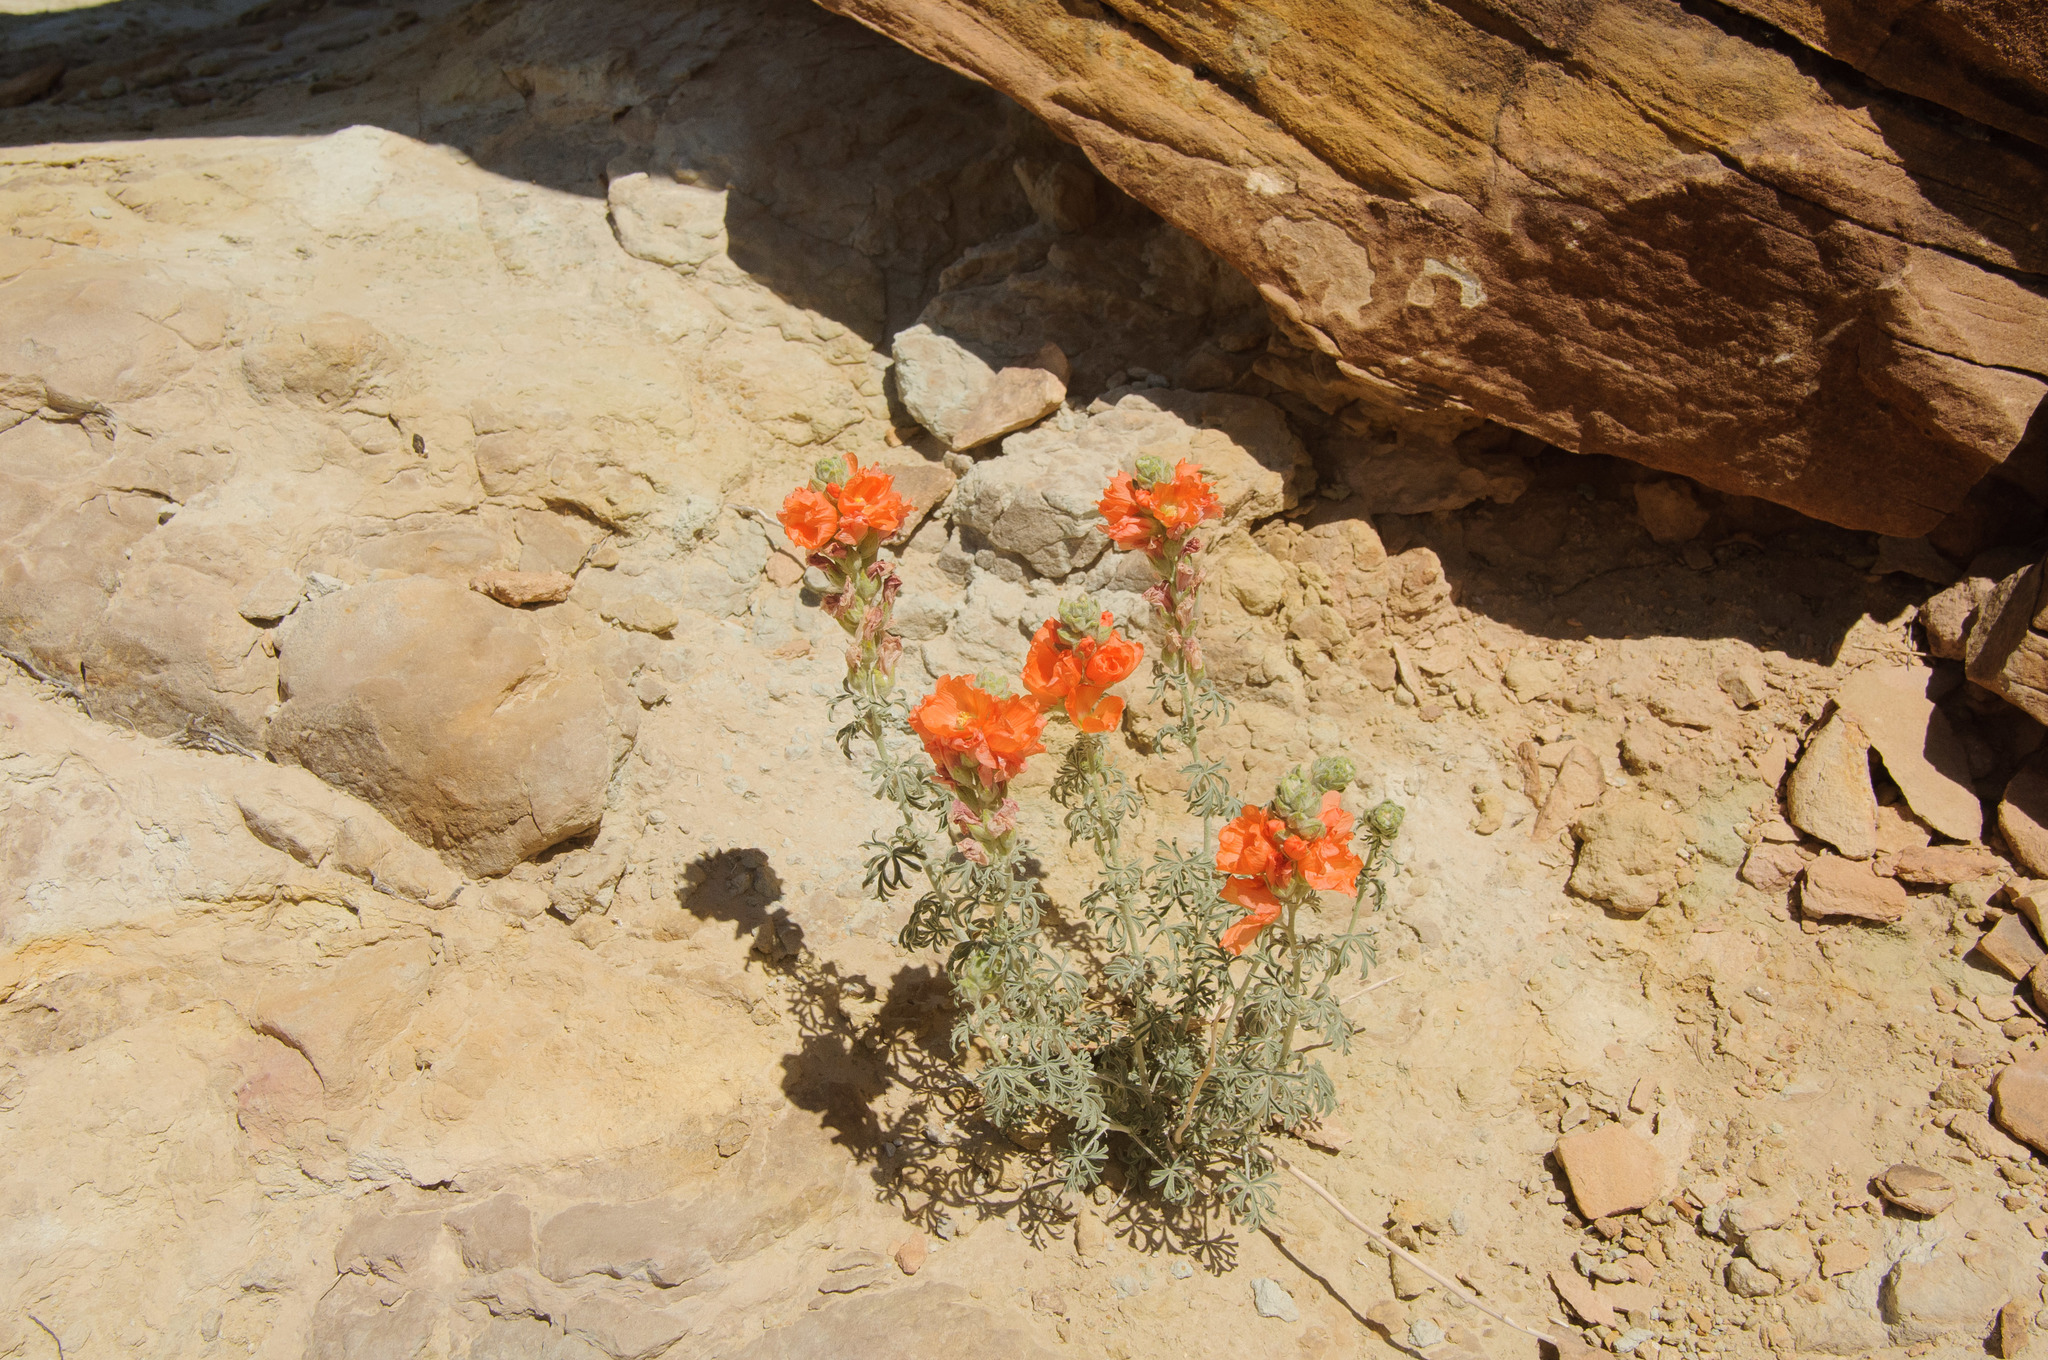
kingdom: Plantae
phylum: Tracheophyta
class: Magnoliopsida
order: Malvales
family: Malvaceae
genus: Sphaeralcea
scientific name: Sphaeralcea coccinea
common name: Moss-rose
